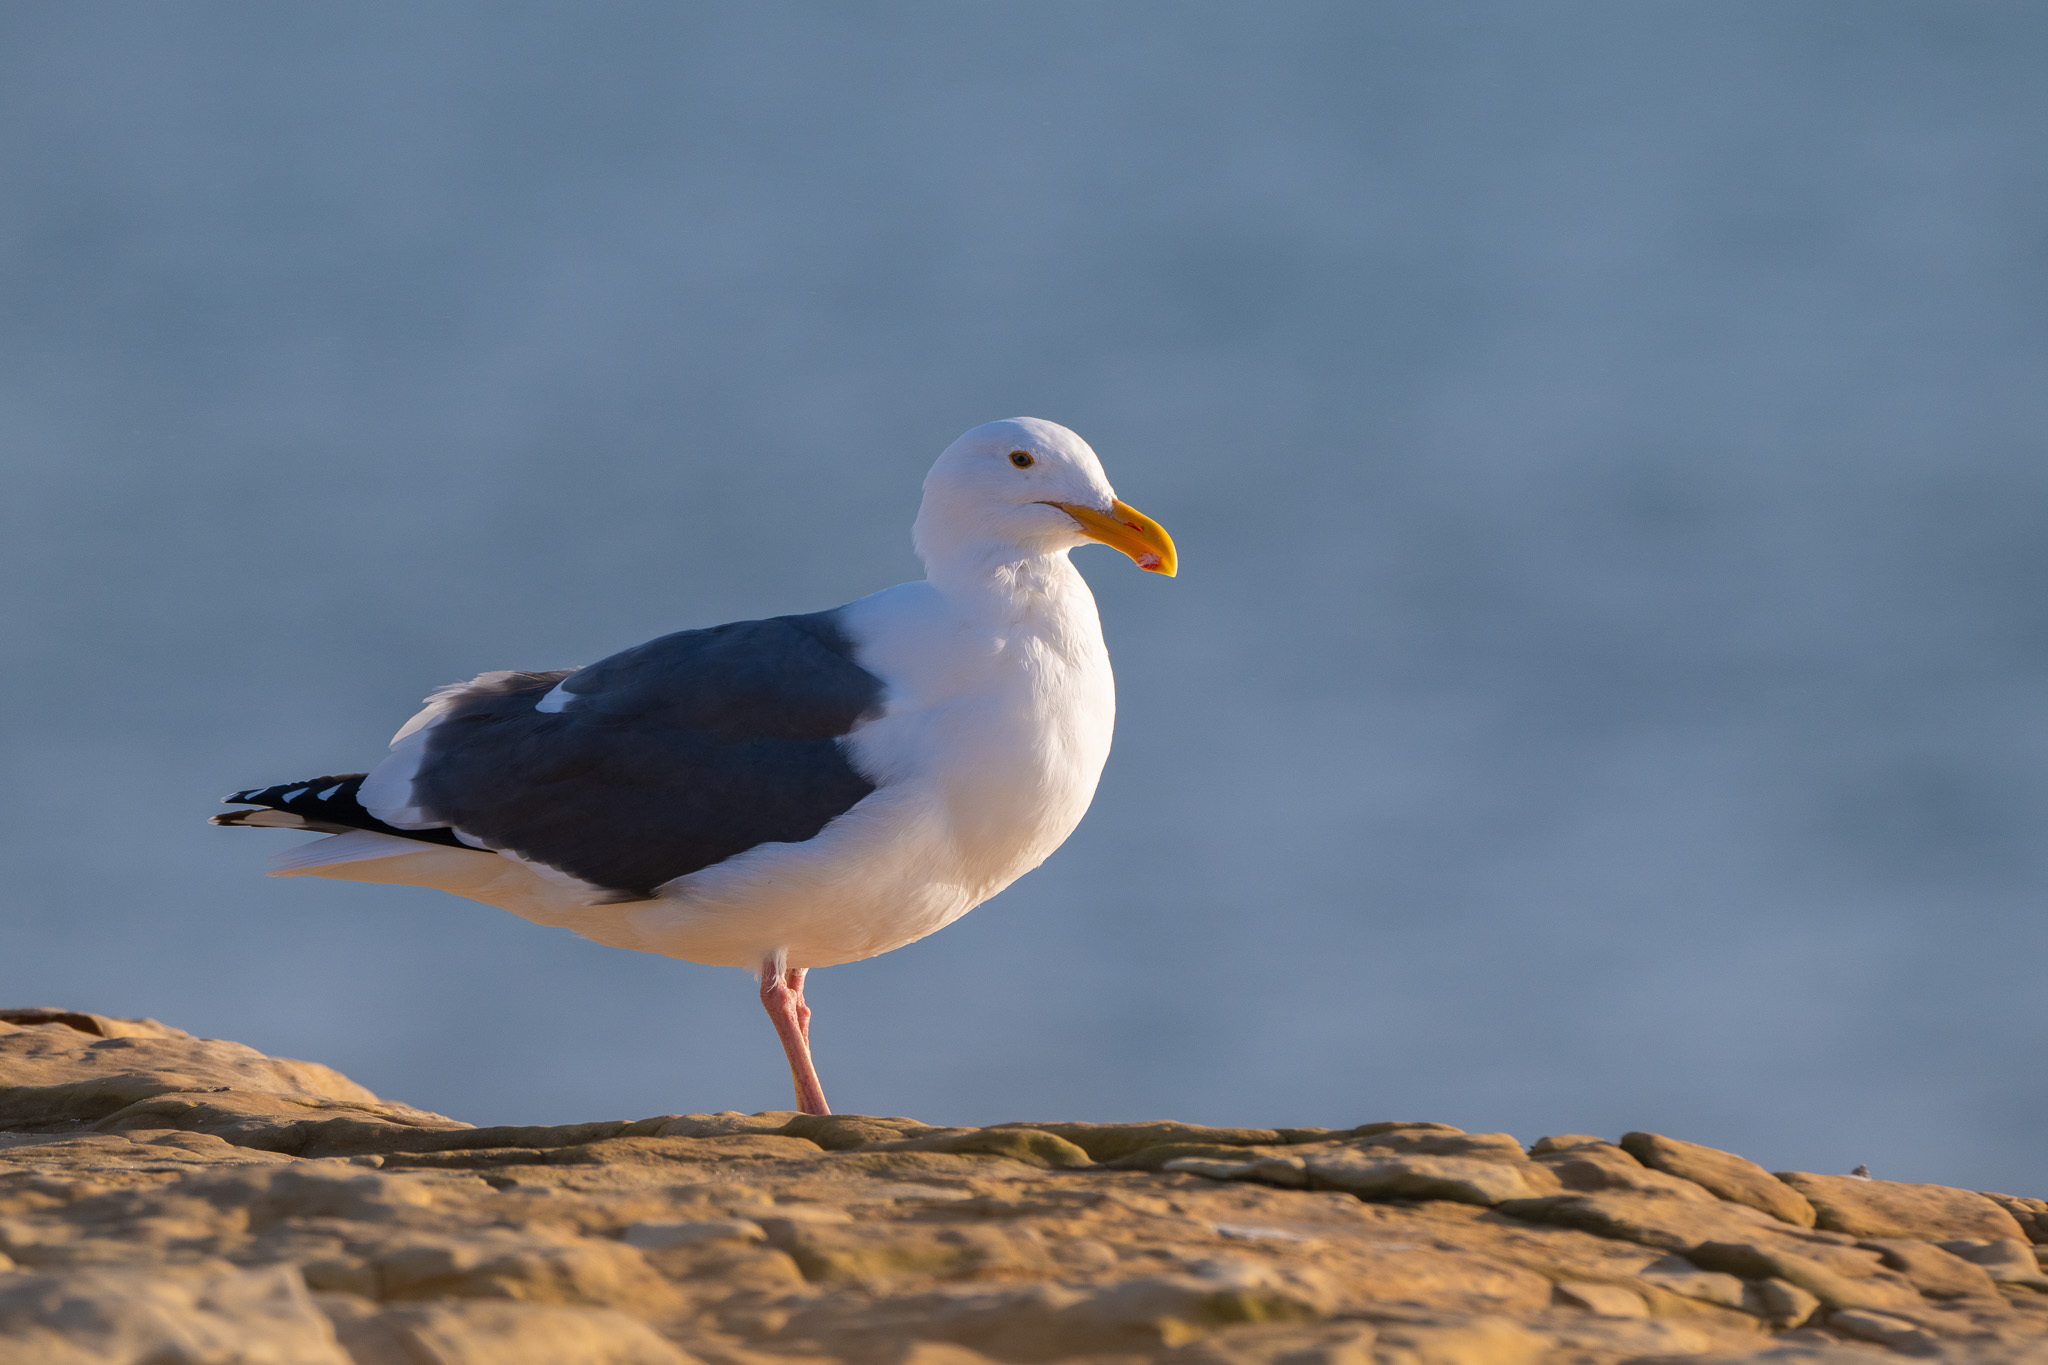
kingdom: Animalia
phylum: Chordata
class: Aves
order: Charadriiformes
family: Laridae
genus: Larus
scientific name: Larus occidentalis
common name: Western gull
